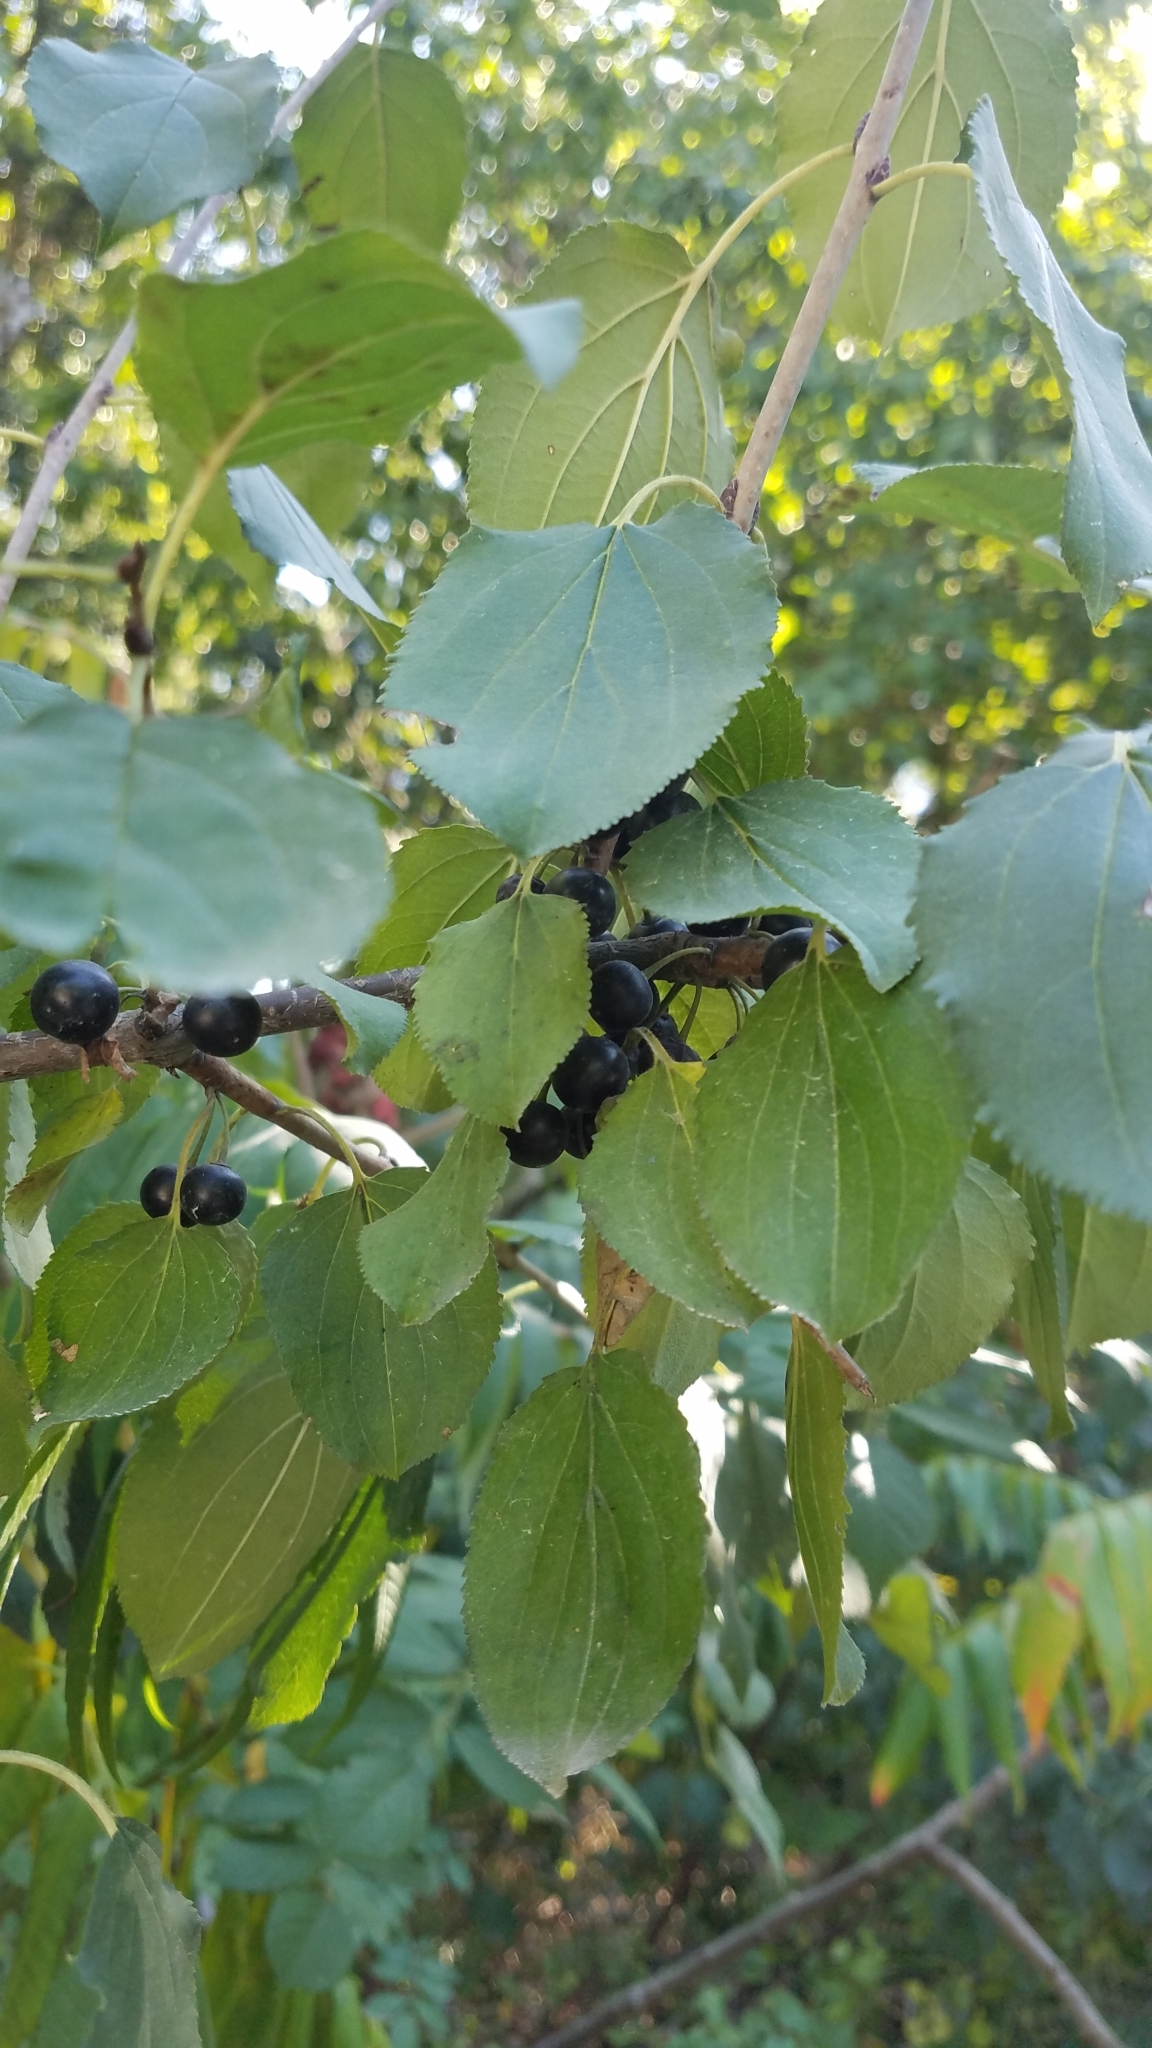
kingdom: Plantae
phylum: Tracheophyta
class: Magnoliopsida
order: Rosales
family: Rhamnaceae
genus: Rhamnus
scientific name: Rhamnus cathartica
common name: Common buckthorn
